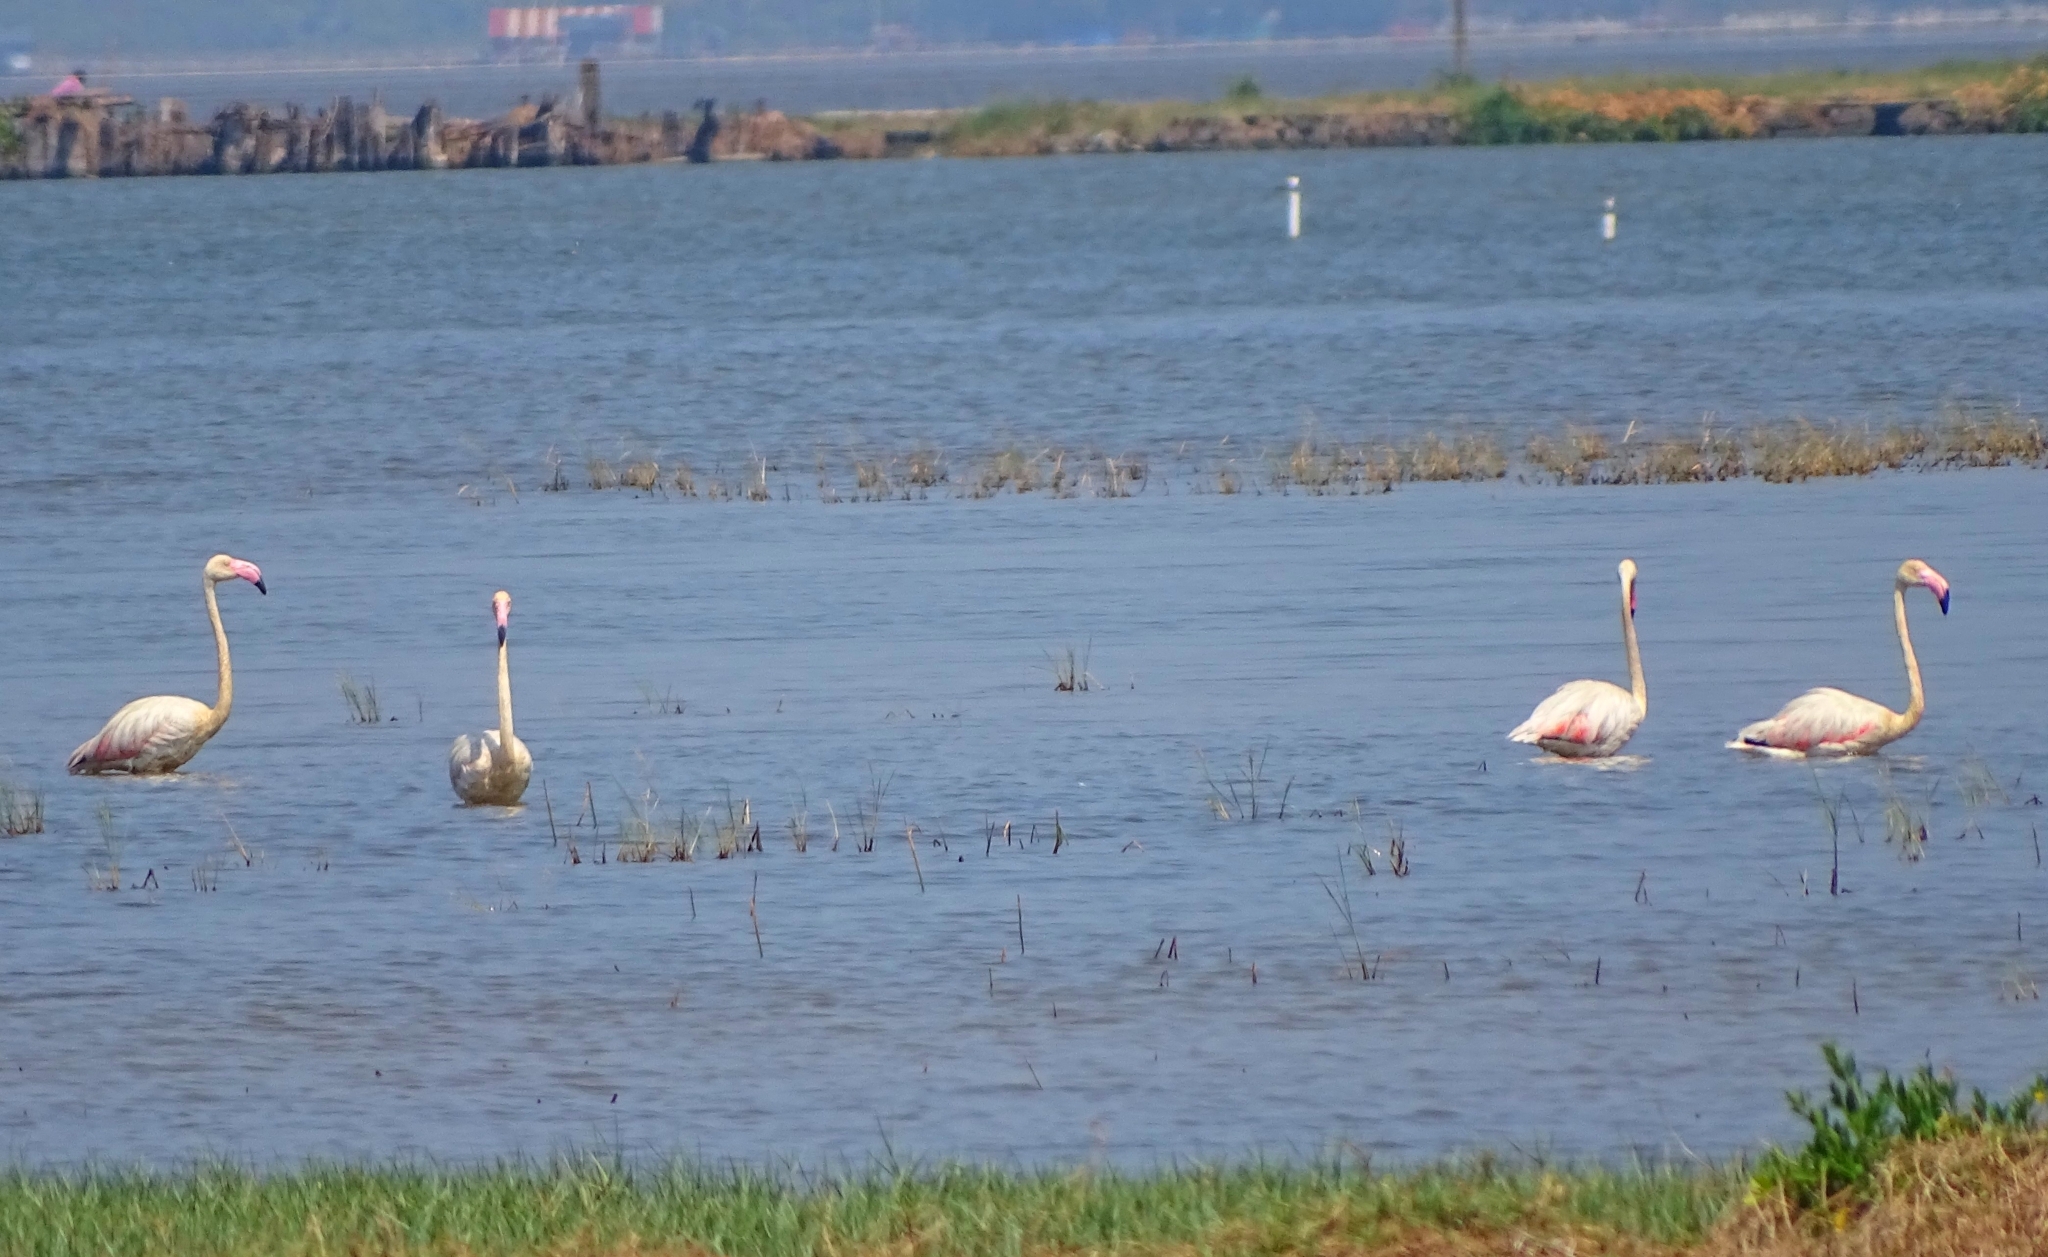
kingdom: Animalia
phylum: Chordata
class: Aves
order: Phoenicopteriformes
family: Phoenicopteridae
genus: Phoenicopterus
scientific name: Phoenicopterus roseus
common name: Greater flamingo
